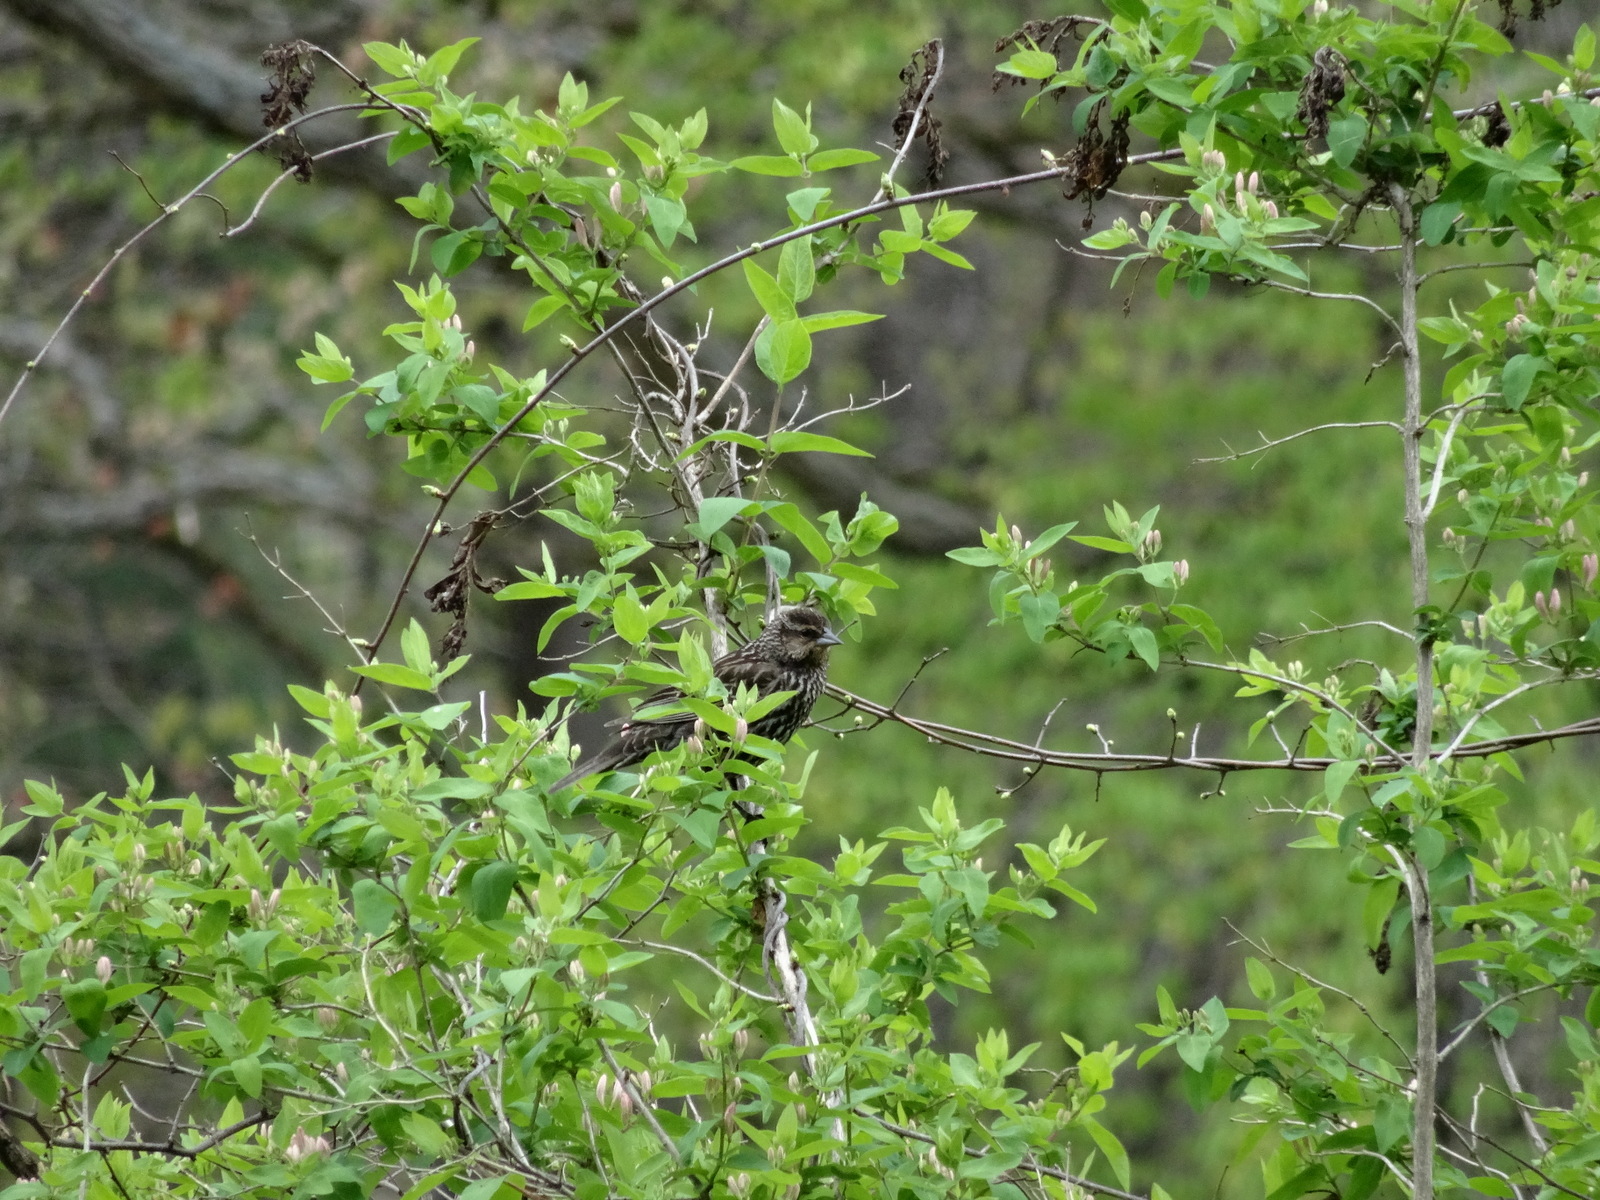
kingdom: Animalia
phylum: Chordata
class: Aves
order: Passeriformes
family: Icteridae
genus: Agelaius
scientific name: Agelaius phoeniceus
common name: Red-winged blackbird
